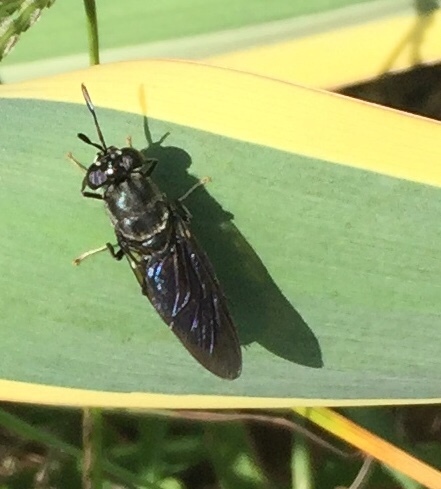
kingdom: Animalia
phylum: Arthropoda
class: Insecta
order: Diptera
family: Stratiomyidae
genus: Hermetia
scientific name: Hermetia illucens
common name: Black soldier fly
